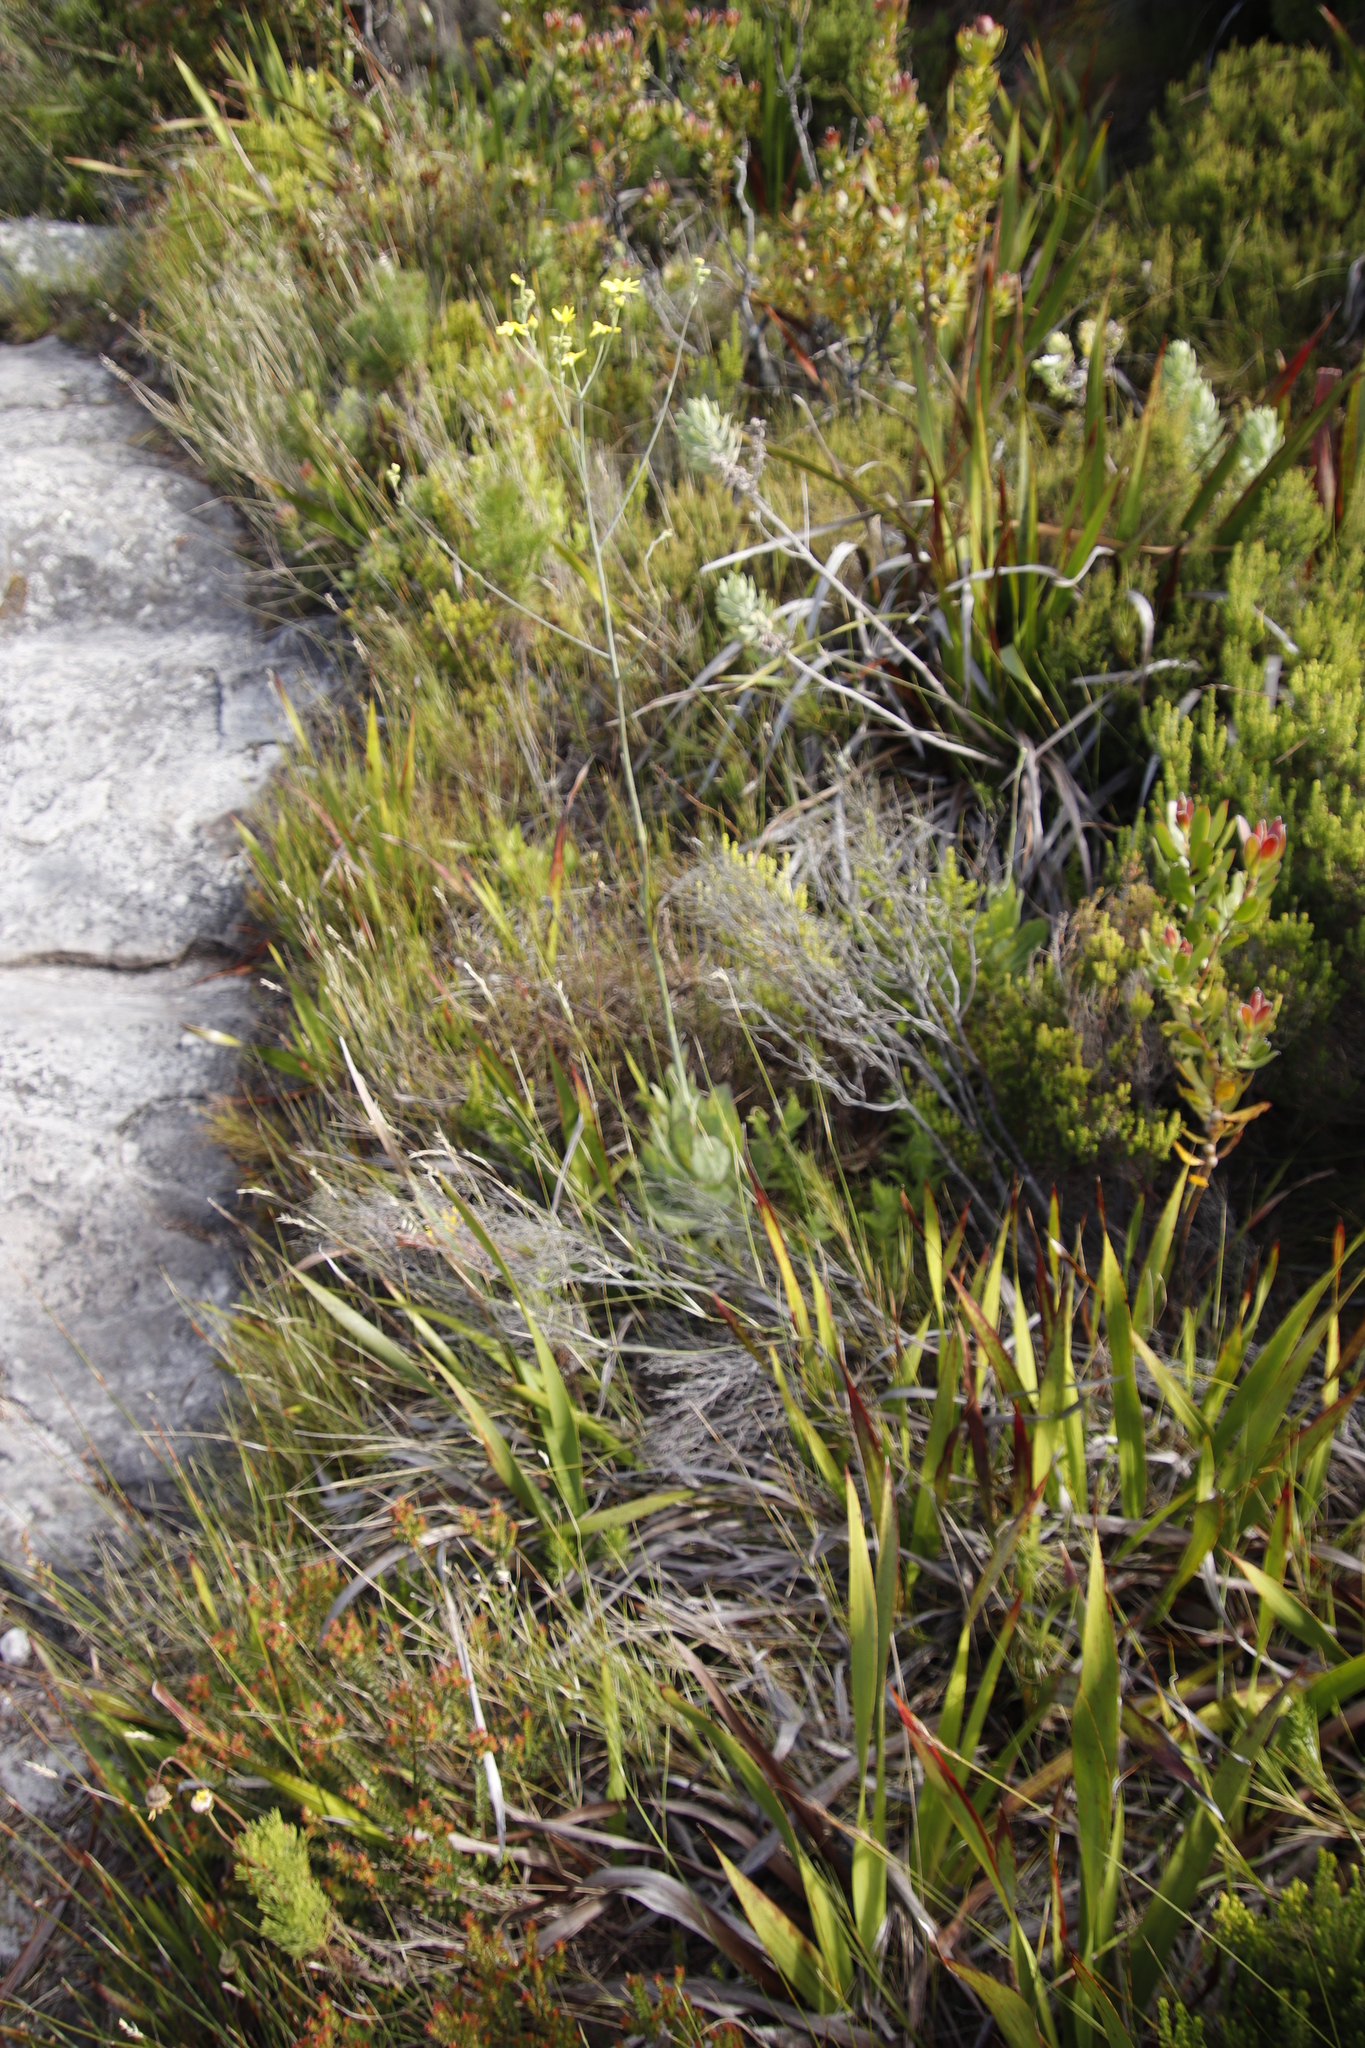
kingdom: Plantae
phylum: Tracheophyta
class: Magnoliopsida
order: Asterales
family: Asteraceae
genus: Othonna
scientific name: Othonna quinquedentata
